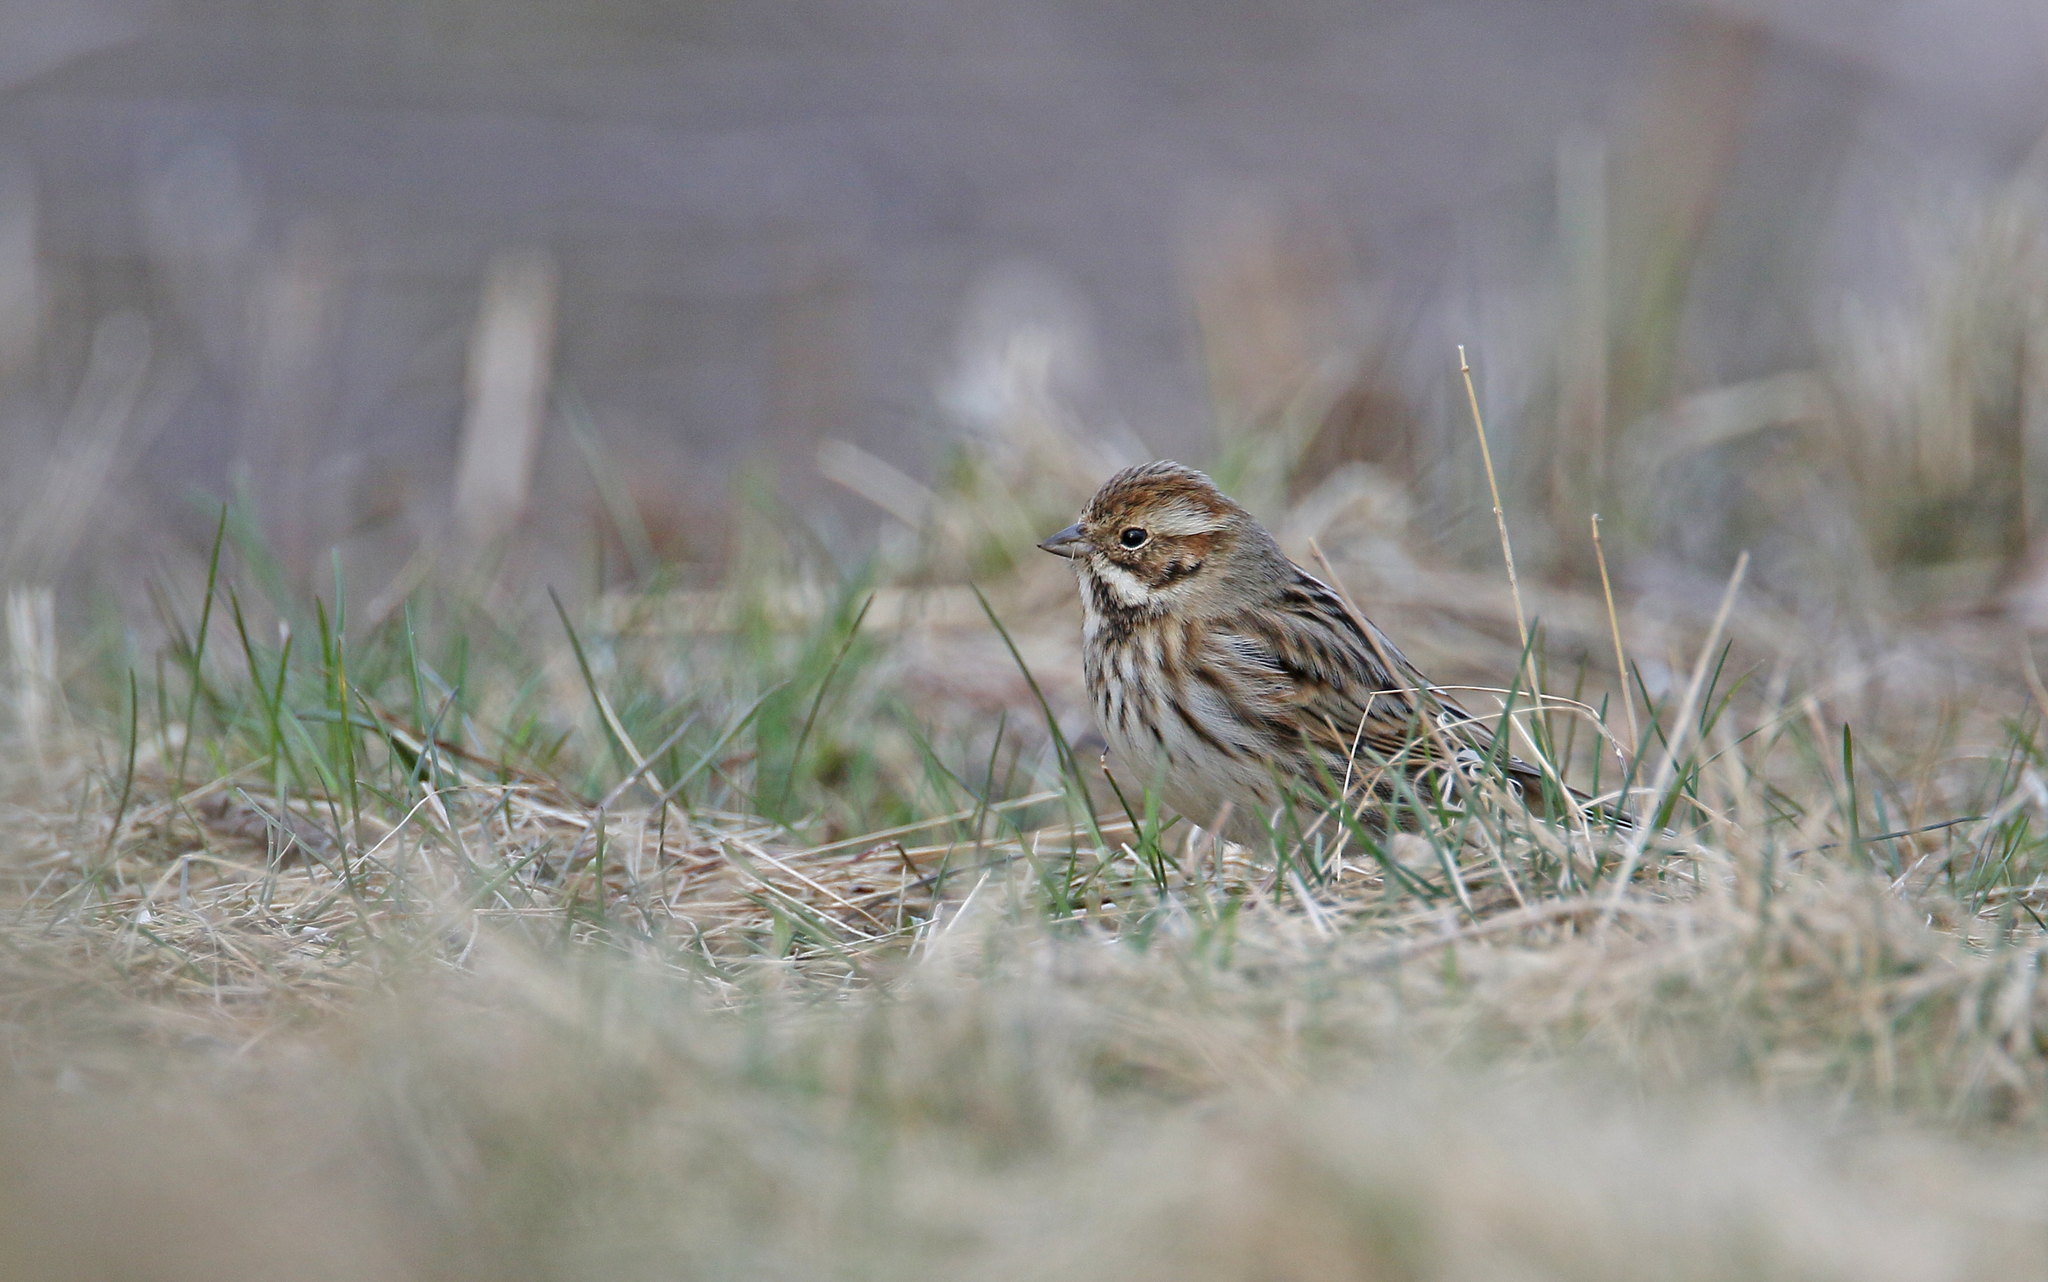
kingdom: Animalia
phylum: Chordata
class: Aves
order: Passeriformes
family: Emberizidae
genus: Emberiza
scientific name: Emberiza schoeniclus
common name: Reed bunting
